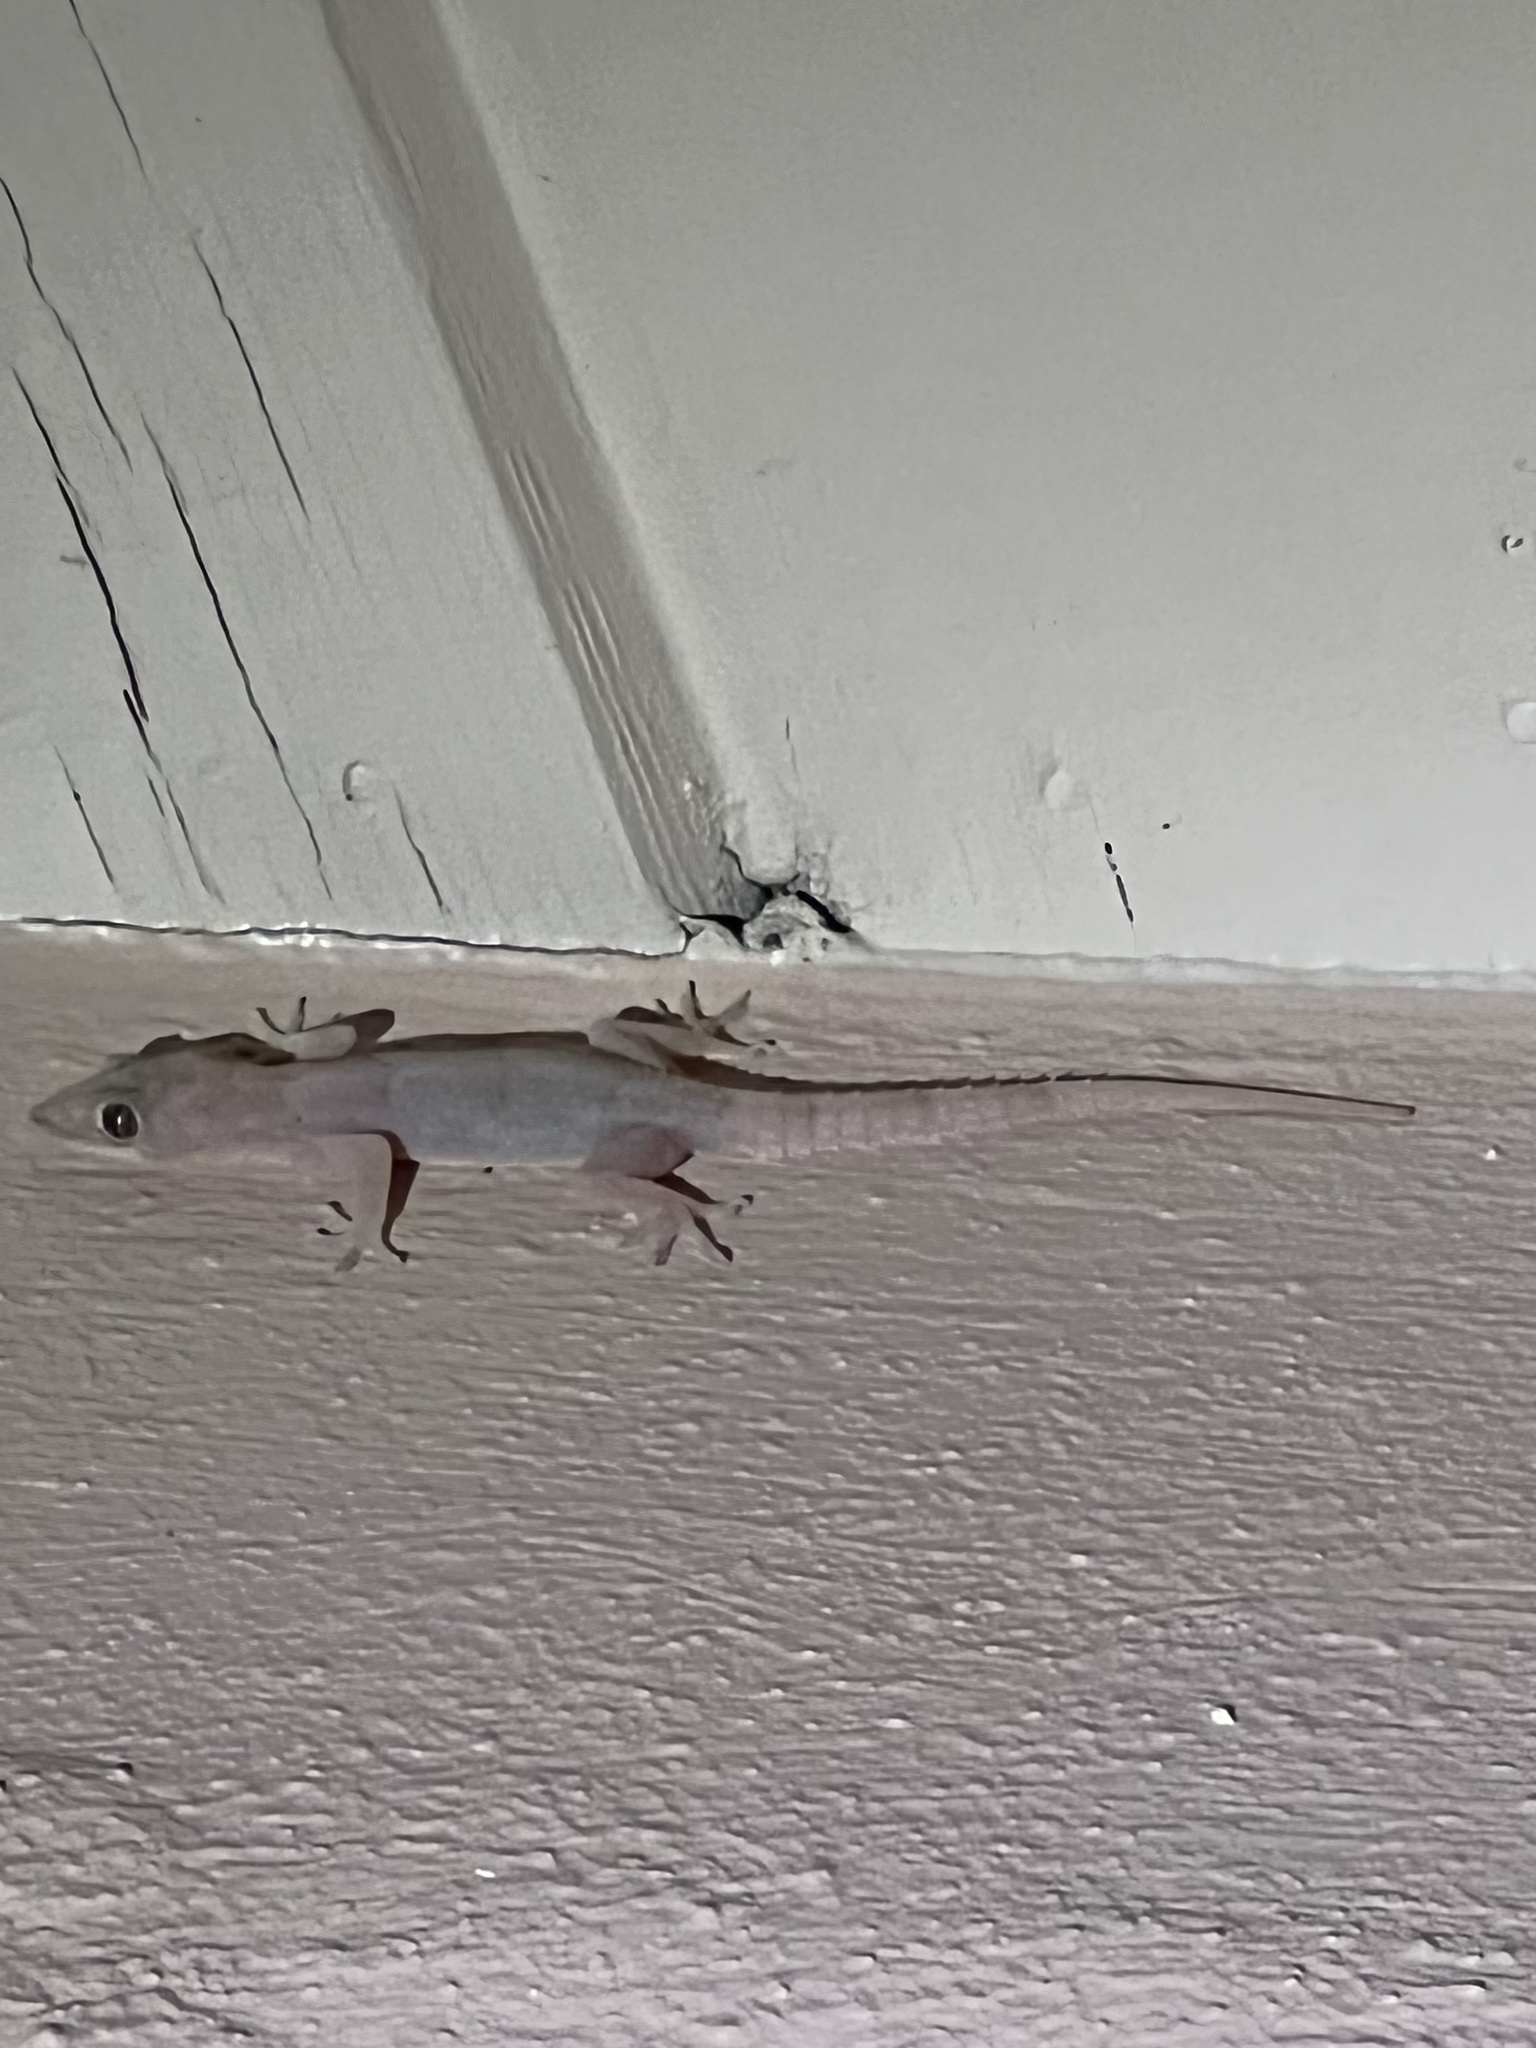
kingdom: Animalia
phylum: Chordata
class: Squamata
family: Gekkonidae
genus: Hemidactylus
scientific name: Hemidactylus mabouia
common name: House gecko
